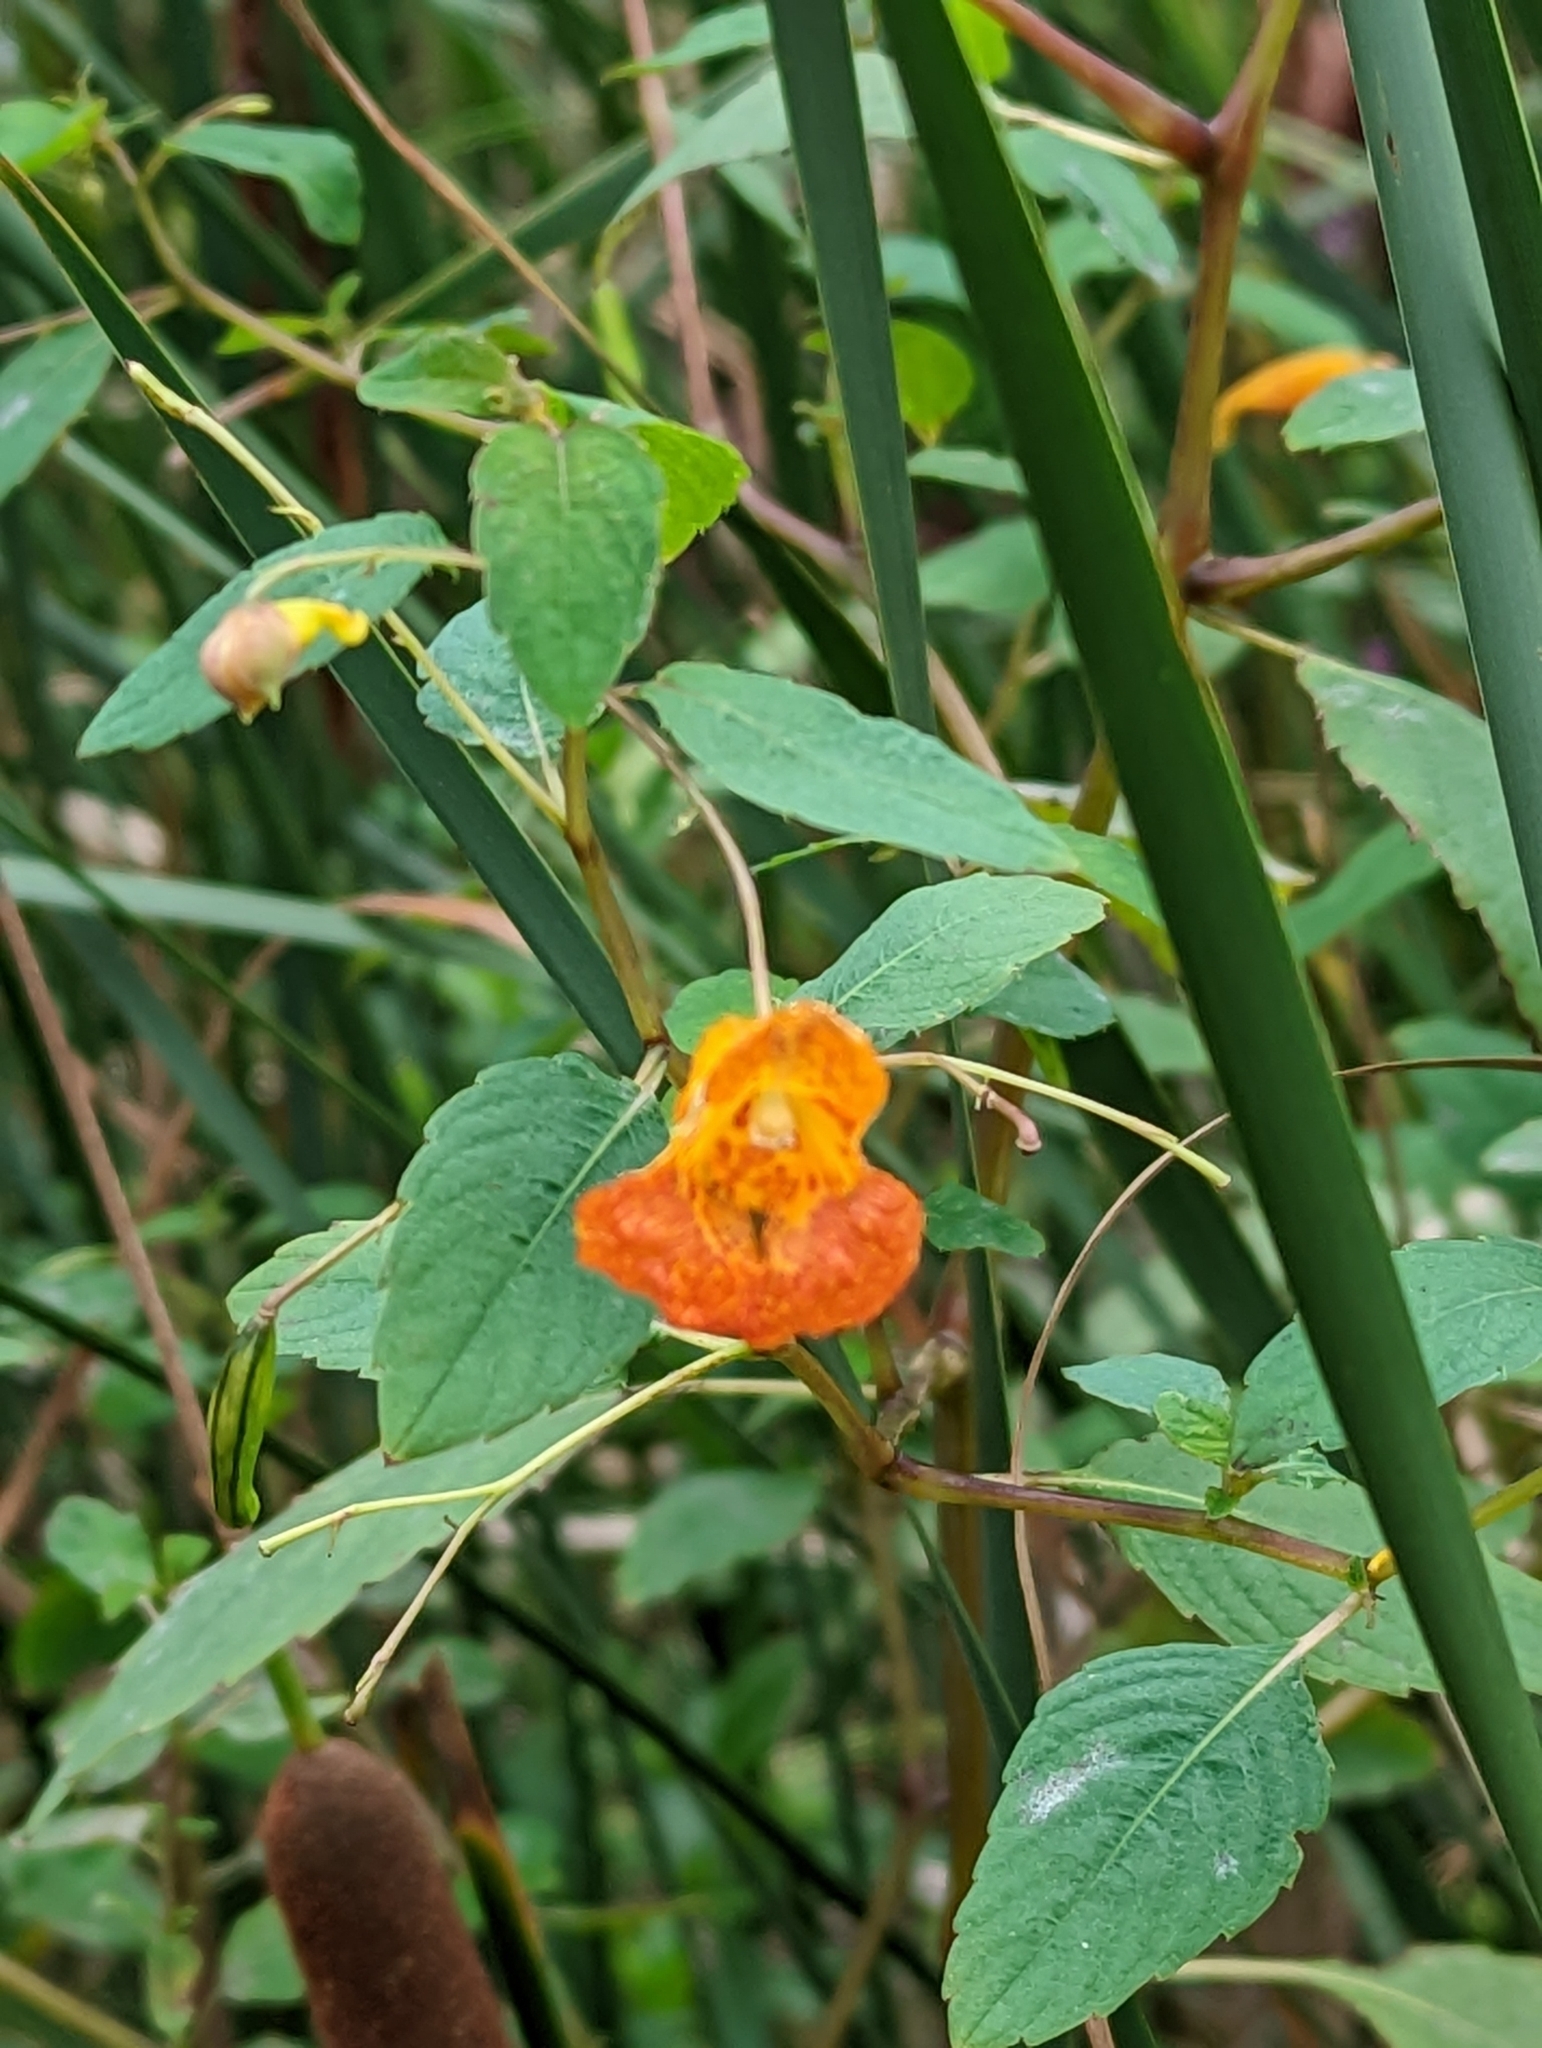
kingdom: Plantae
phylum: Tracheophyta
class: Magnoliopsida
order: Ericales
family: Balsaminaceae
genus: Impatiens
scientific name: Impatiens capensis
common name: Orange balsam
